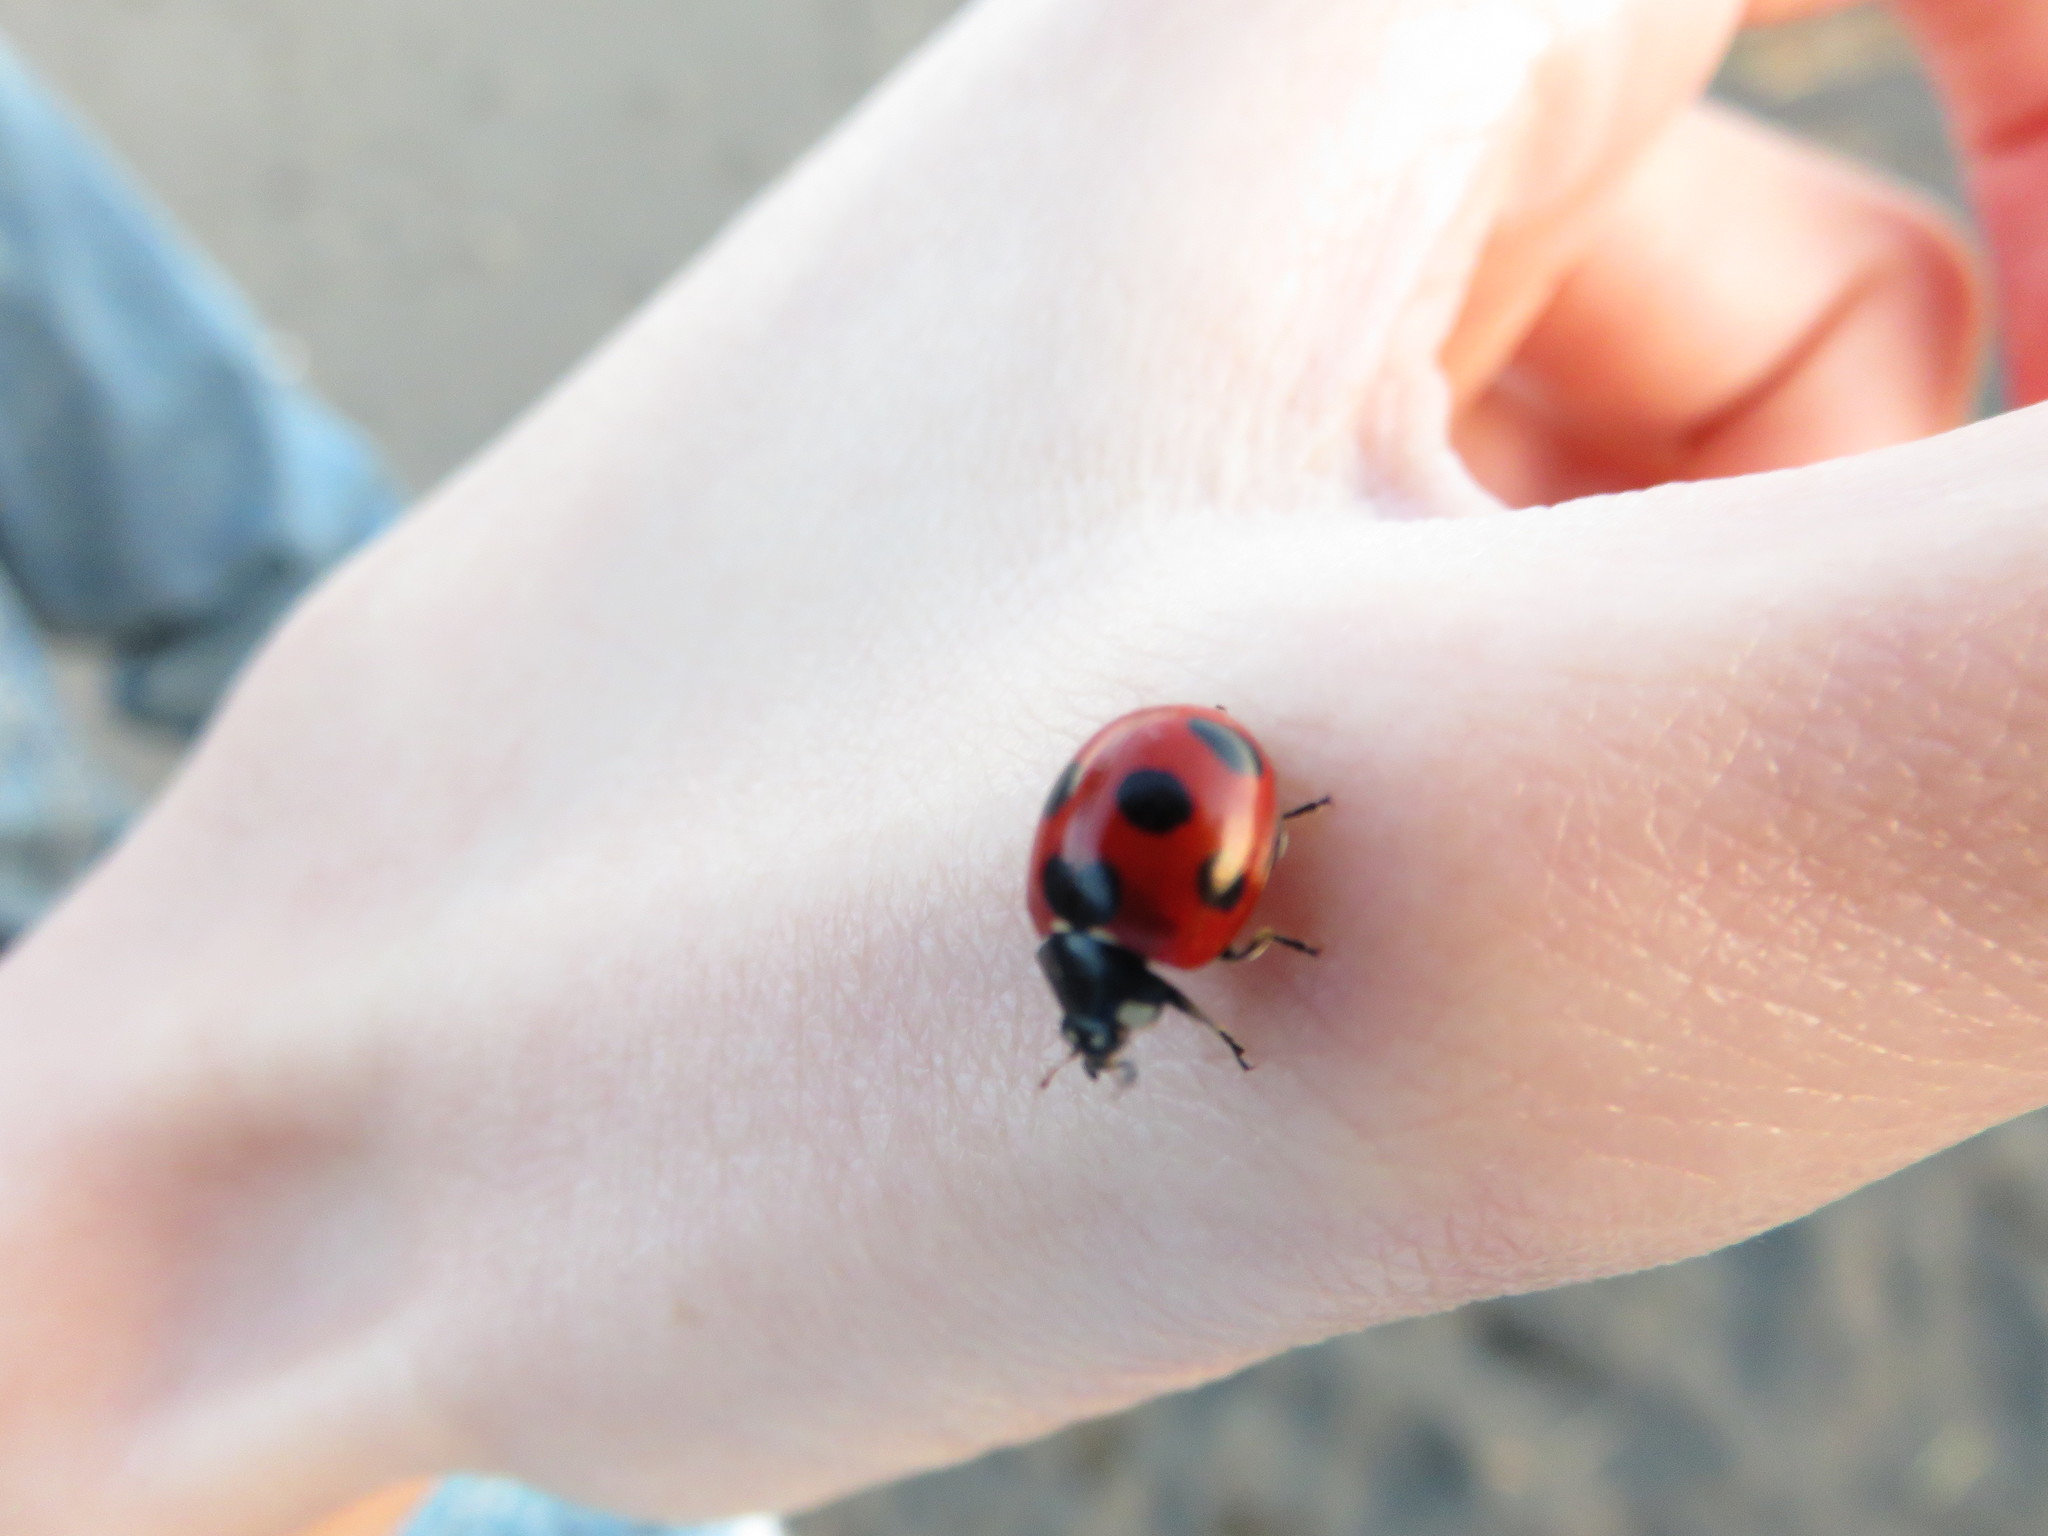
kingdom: Animalia
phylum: Arthropoda
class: Insecta
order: Coleoptera
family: Coccinellidae
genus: Coccinella
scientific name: Coccinella septempunctata
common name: Sevenspotted lady beetle
